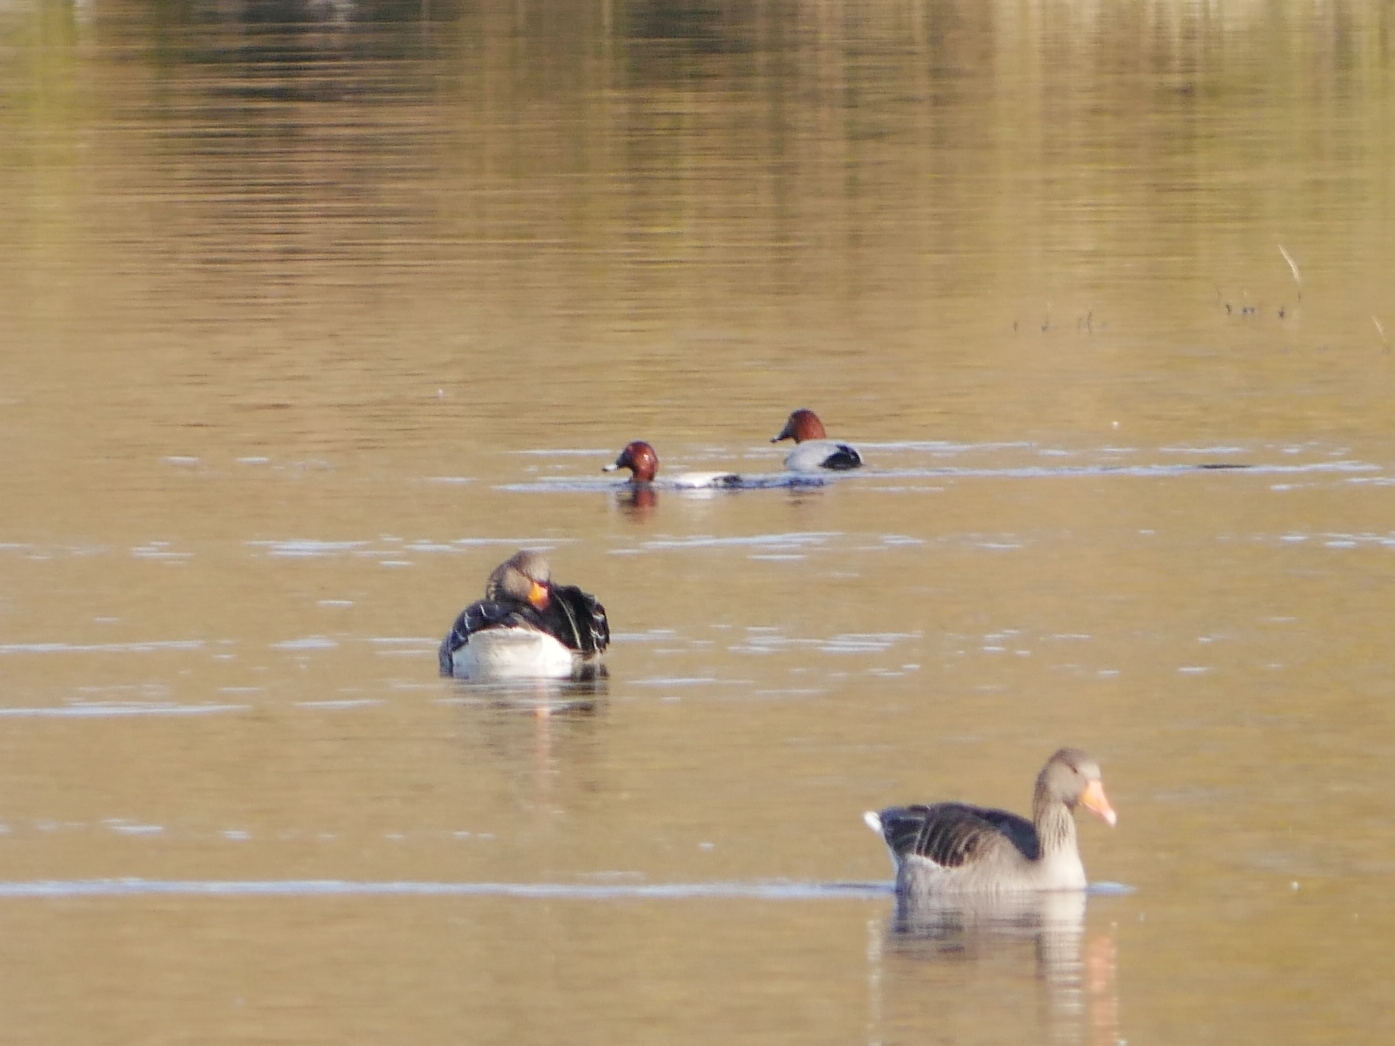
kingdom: Animalia
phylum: Chordata
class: Aves
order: Anseriformes
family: Anatidae
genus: Aythya
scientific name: Aythya ferina
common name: Common pochard
